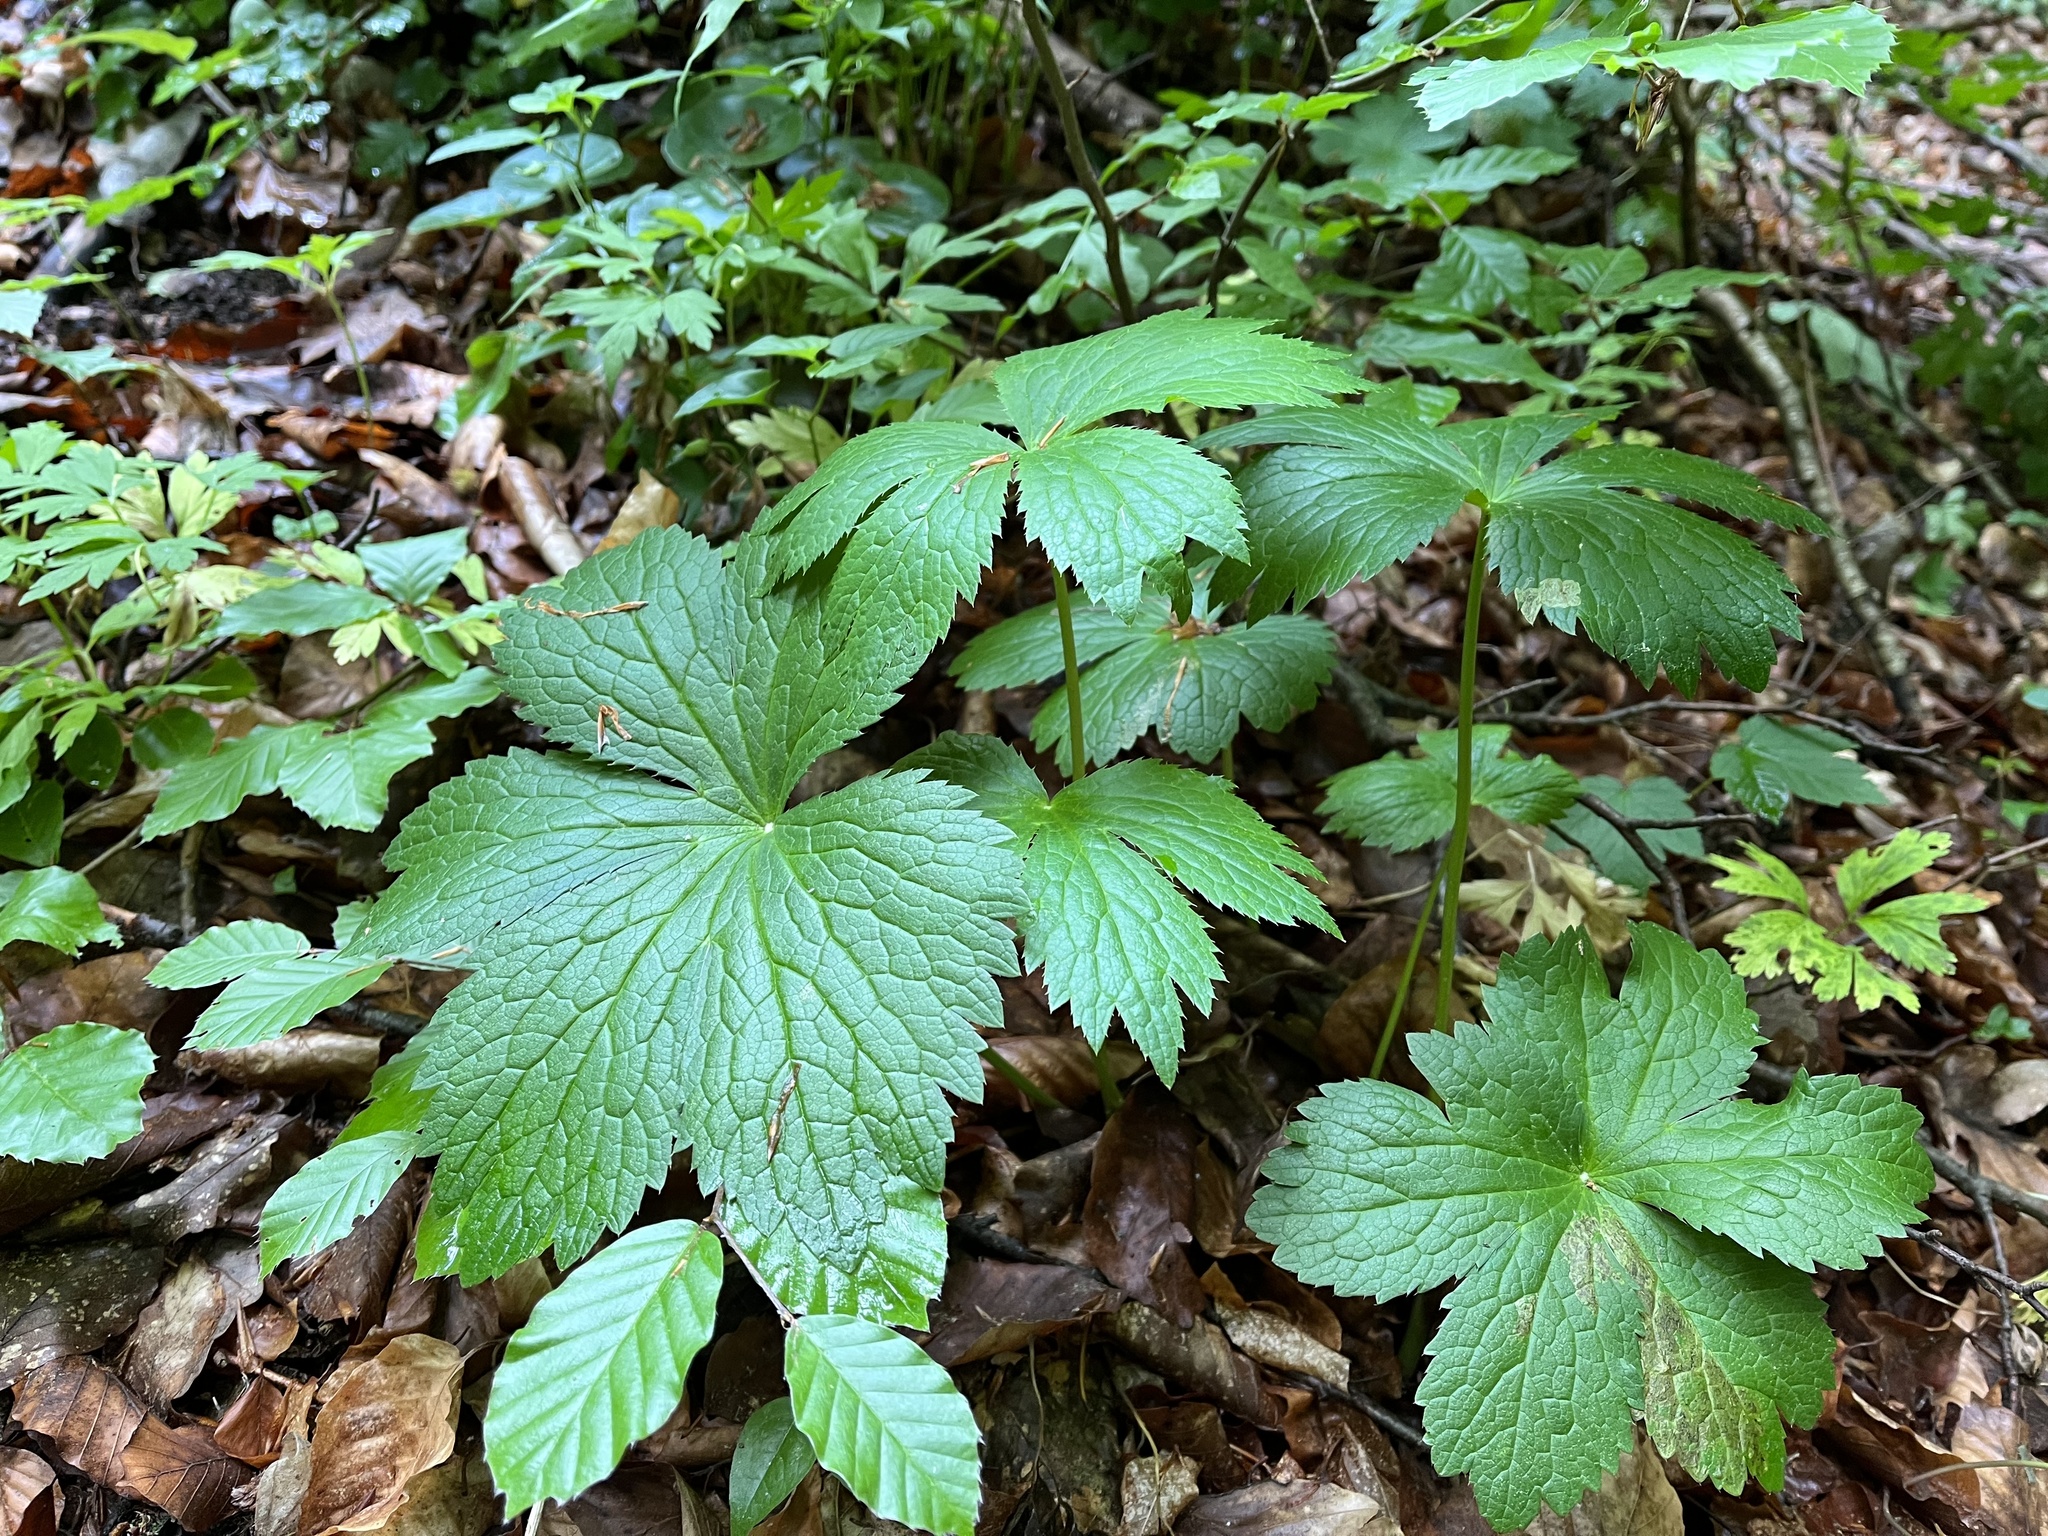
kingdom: Plantae
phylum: Tracheophyta
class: Magnoliopsida
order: Apiales
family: Apiaceae
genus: Astrantia
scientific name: Astrantia major
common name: Greater masterwort
